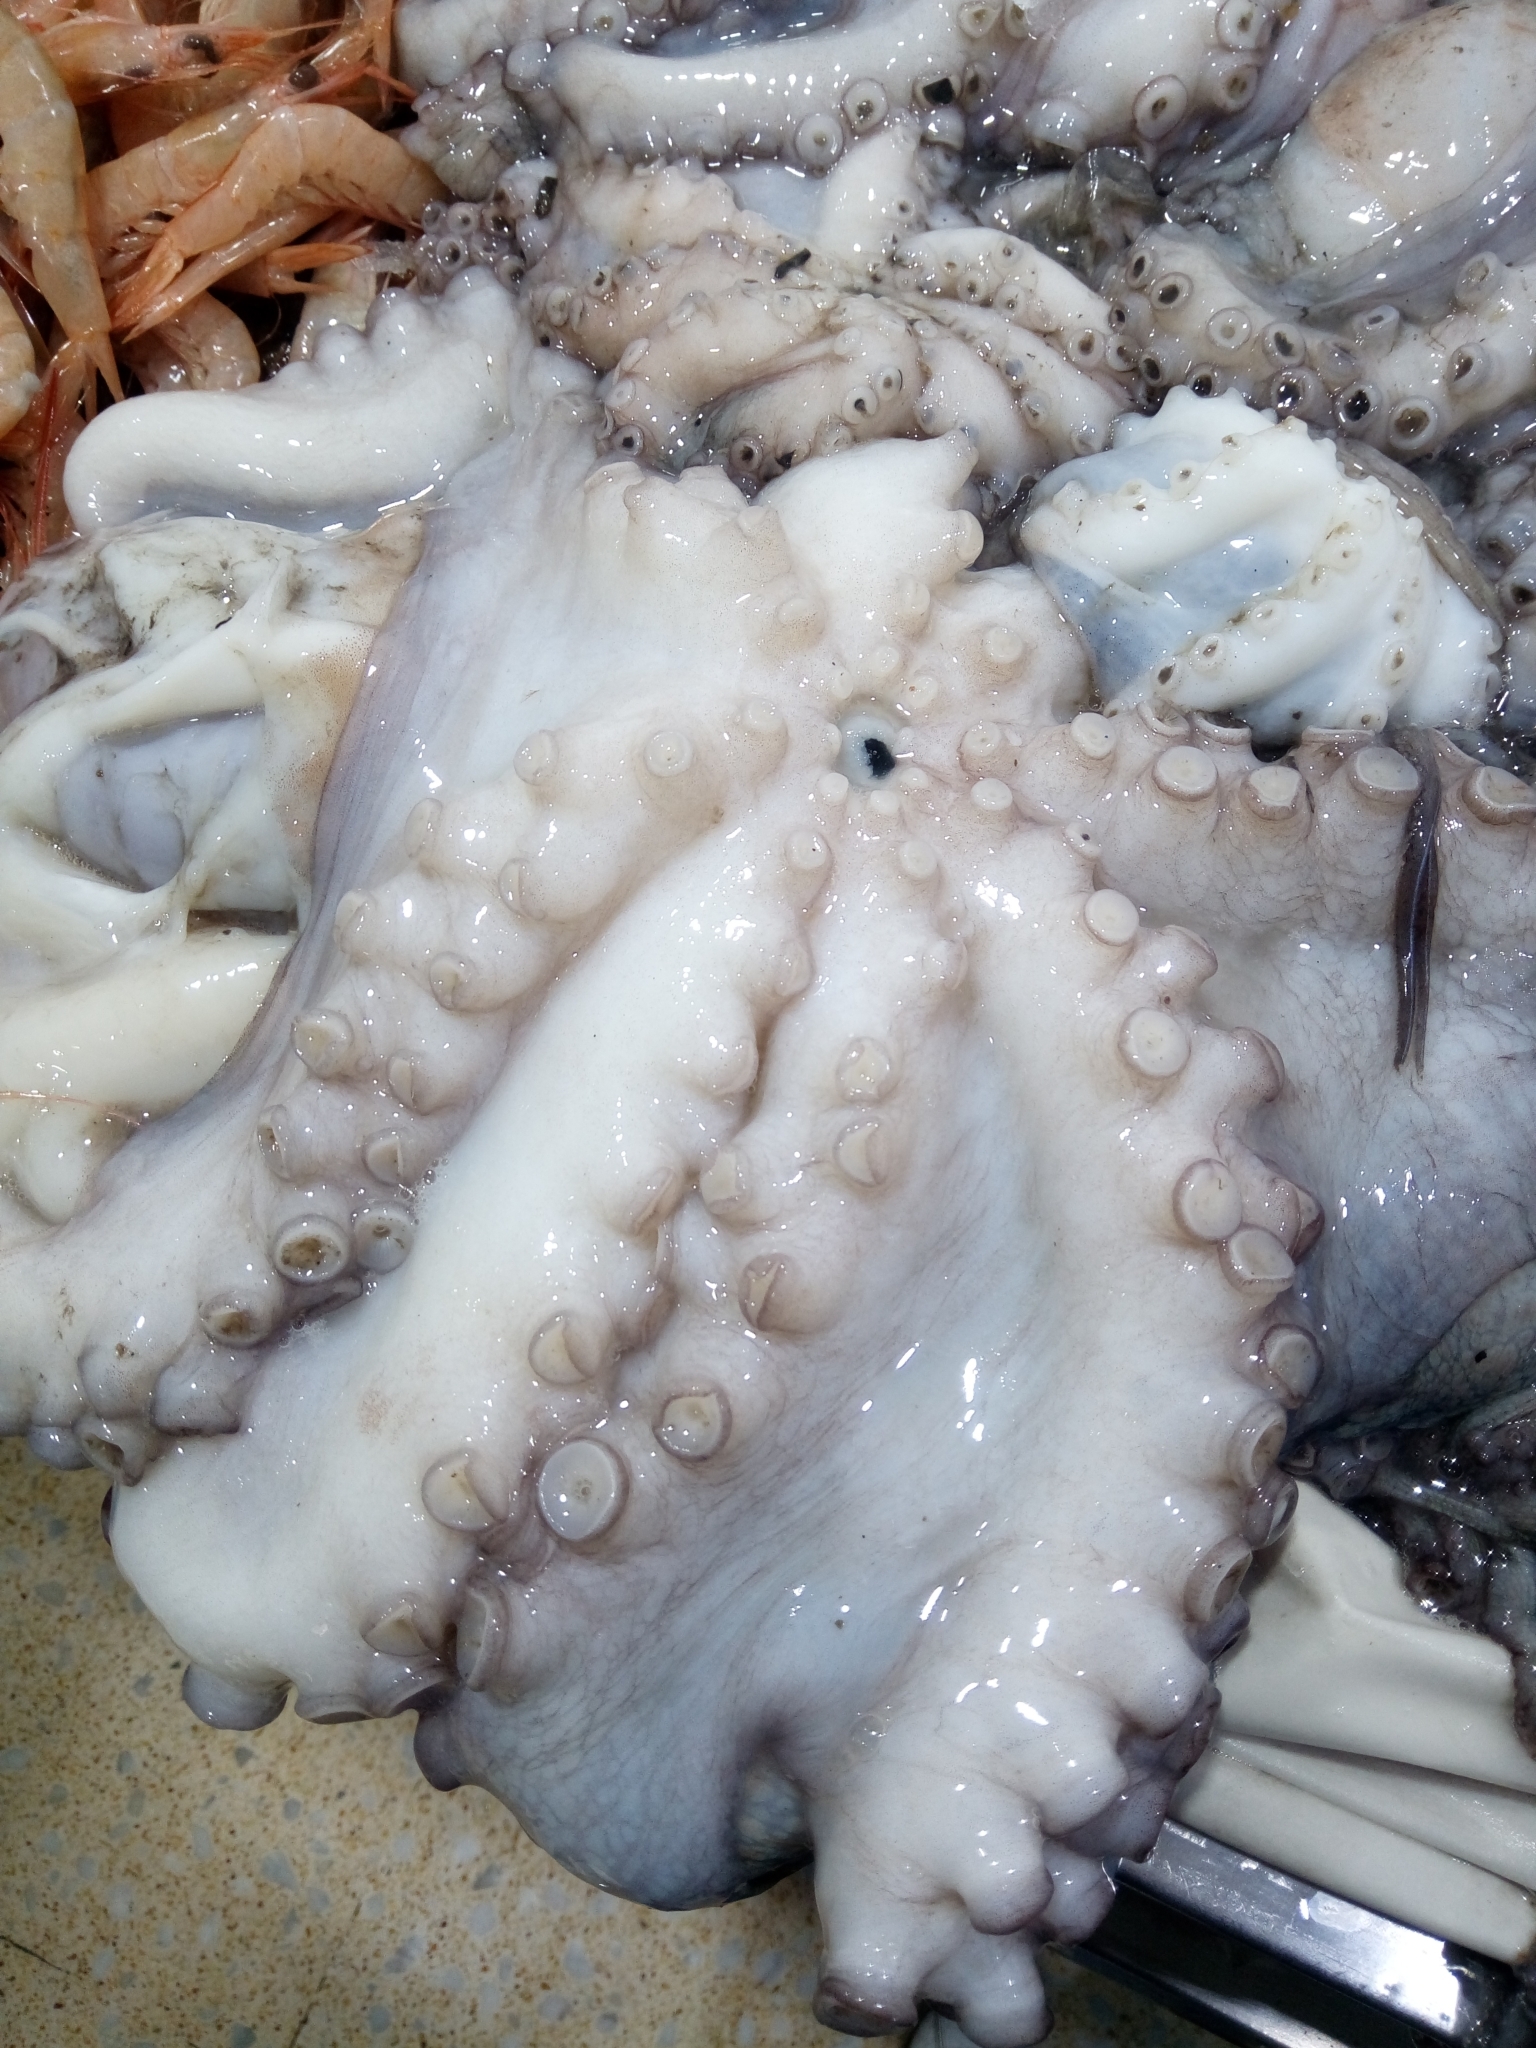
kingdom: Animalia
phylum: Mollusca
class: Cephalopoda
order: Octopoda
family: Octopodidae
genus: Octopus
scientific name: Octopus vulgaris
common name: Common octopus
